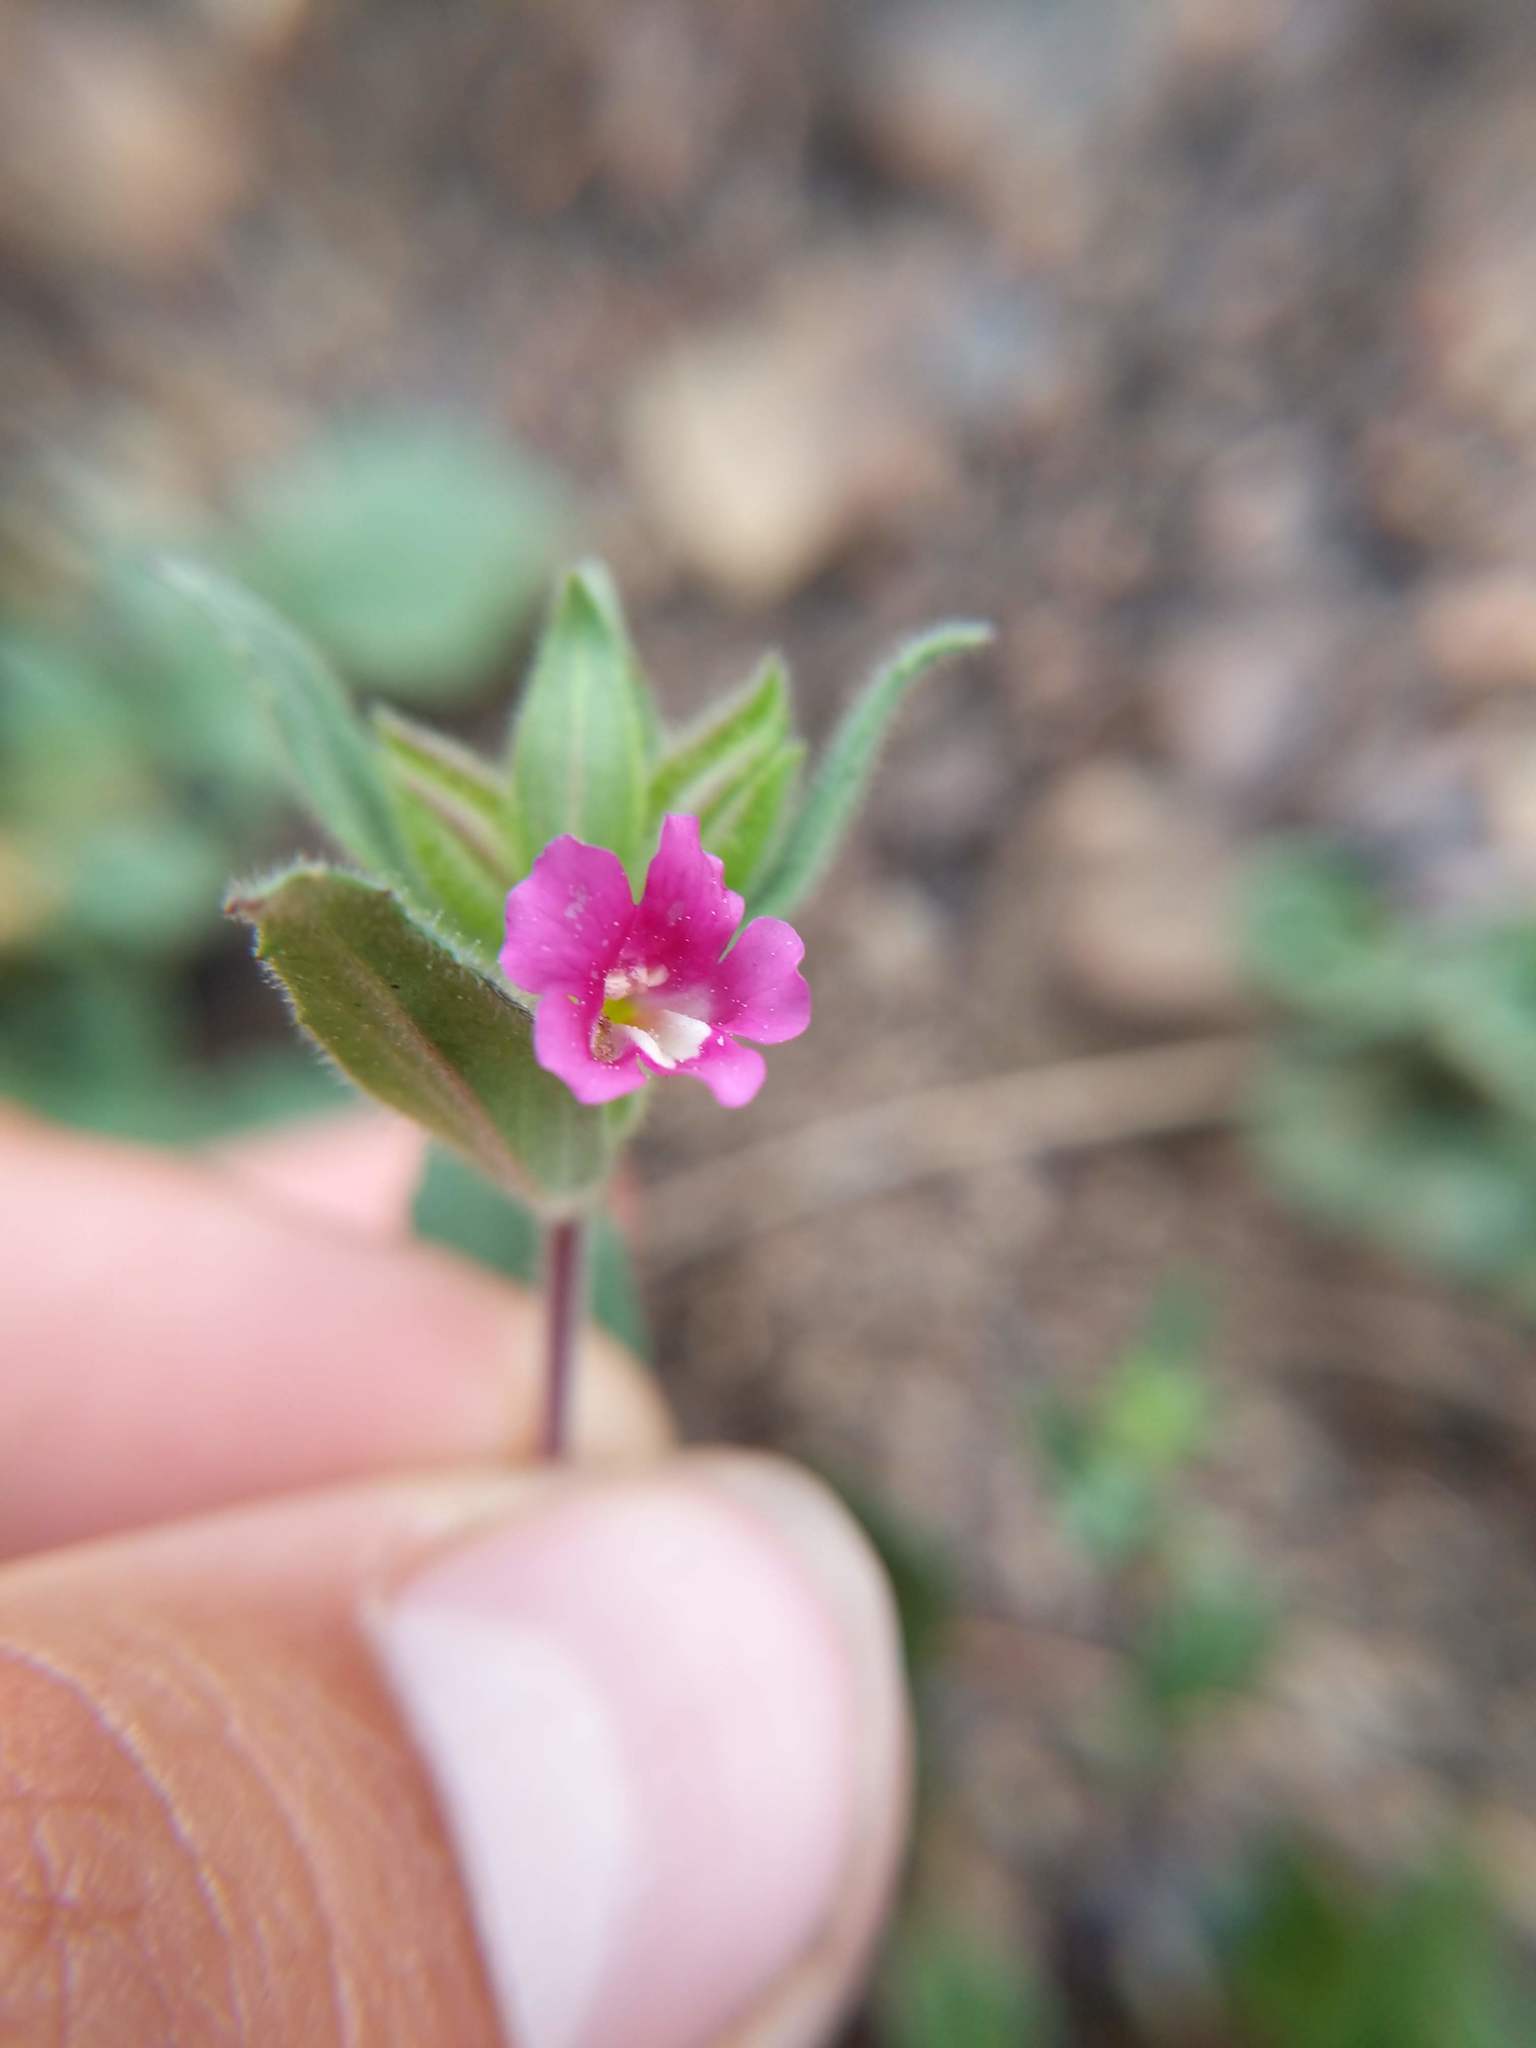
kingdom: Plantae
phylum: Tracheophyta
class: Magnoliopsida
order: Lamiales
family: Phrymaceae
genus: Diplacus
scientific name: Diplacus bolanderi
